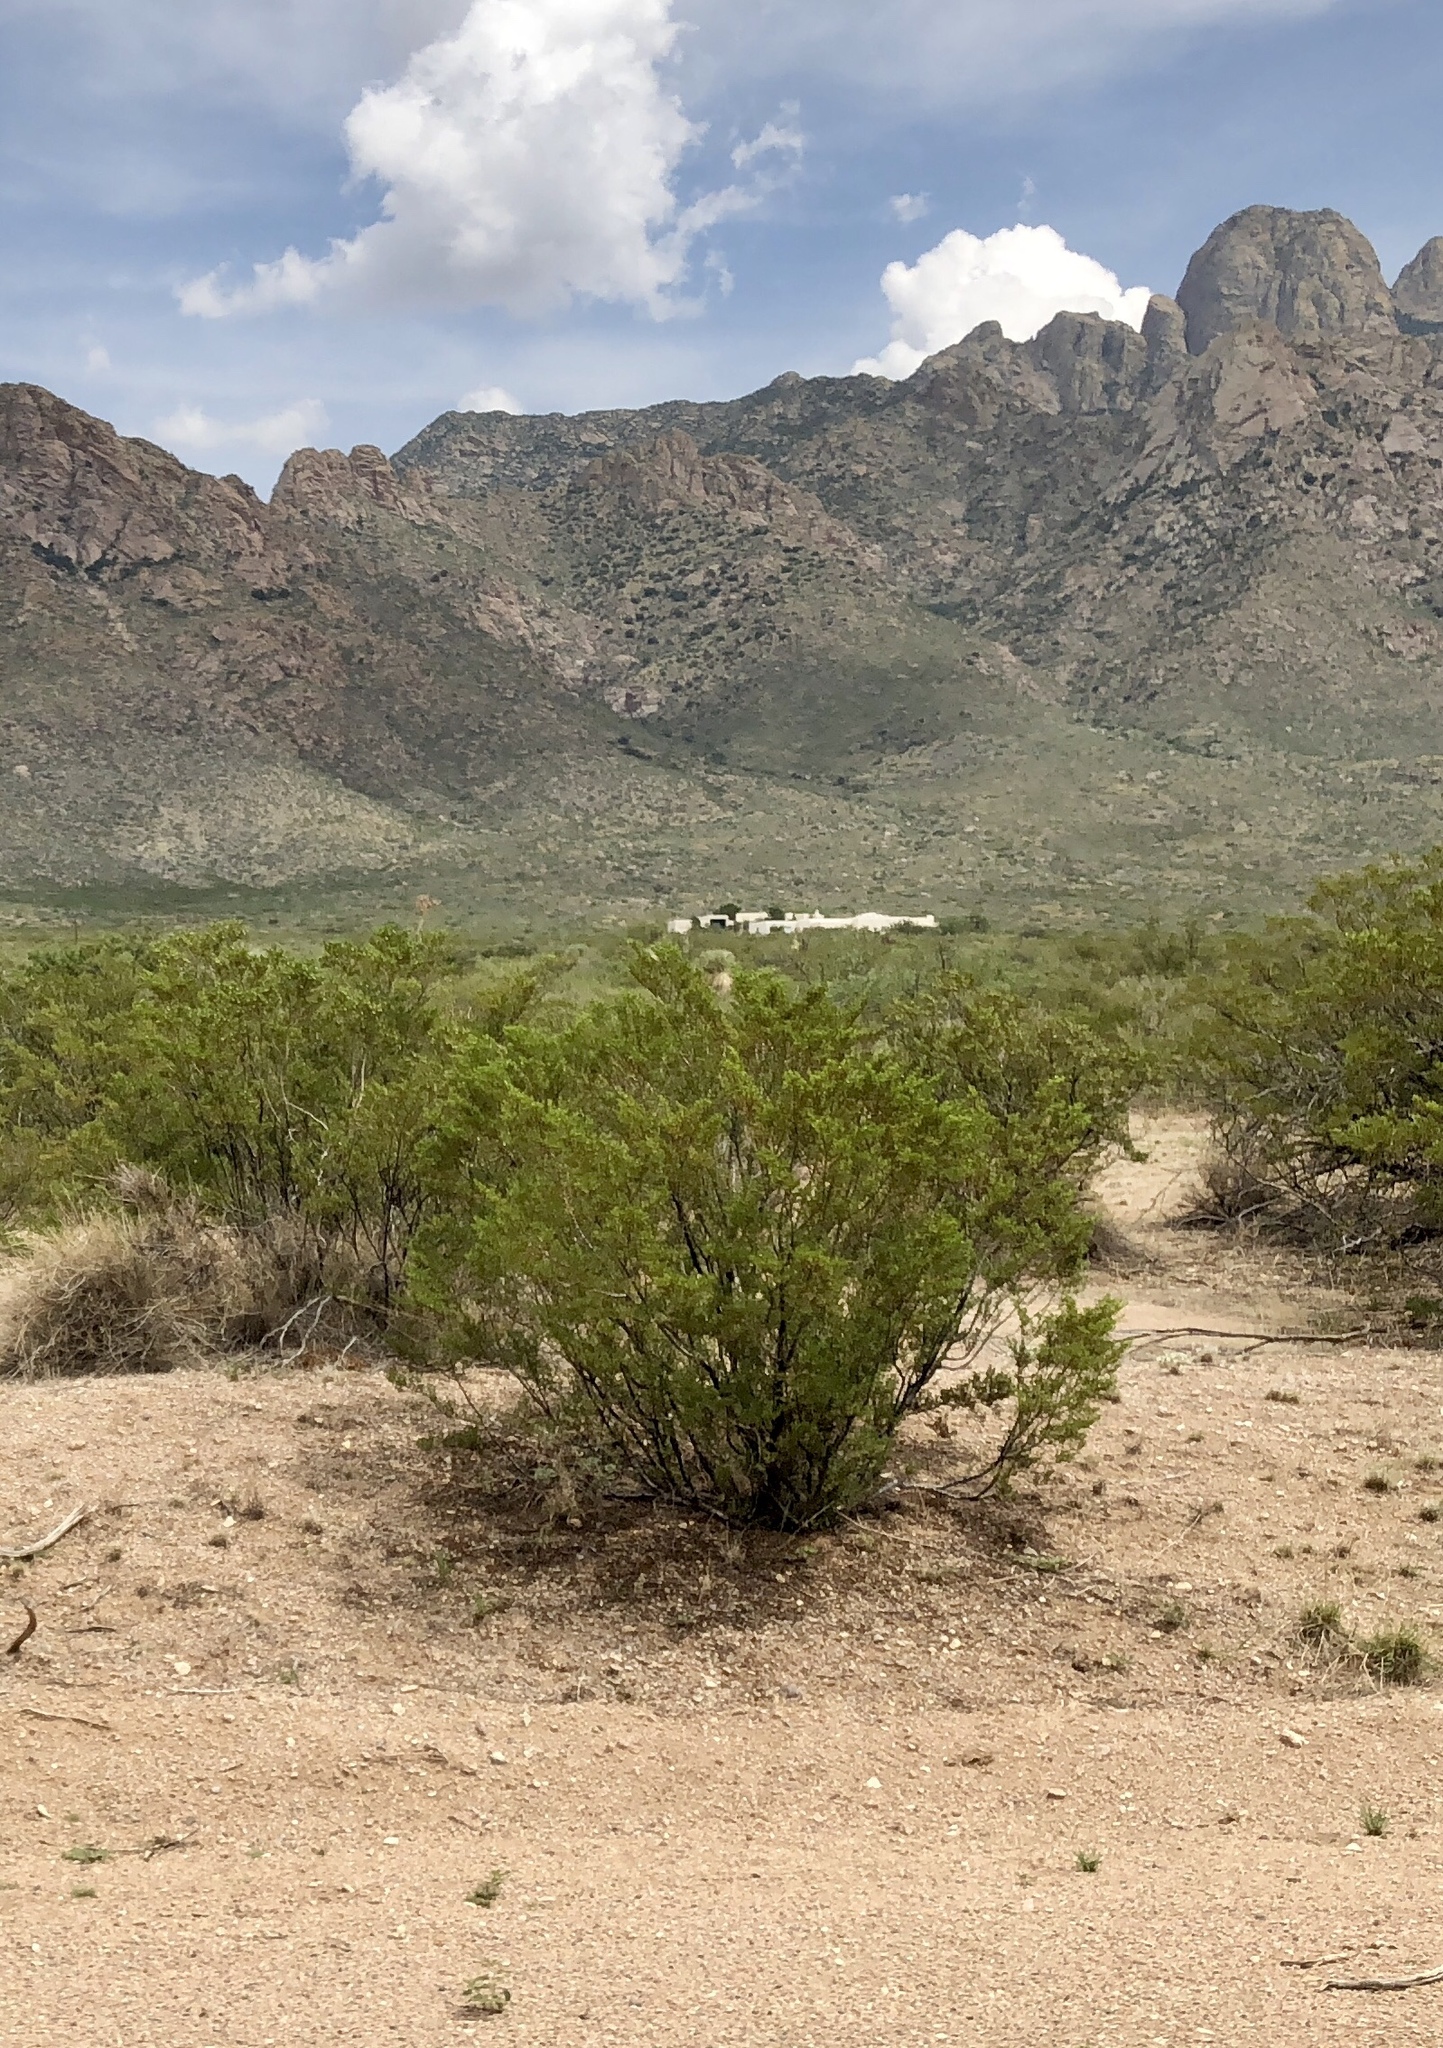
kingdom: Plantae
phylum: Tracheophyta
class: Magnoliopsida
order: Zygophyllales
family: Zygophyllaceae
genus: Larrea
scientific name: Larrea tridentata
